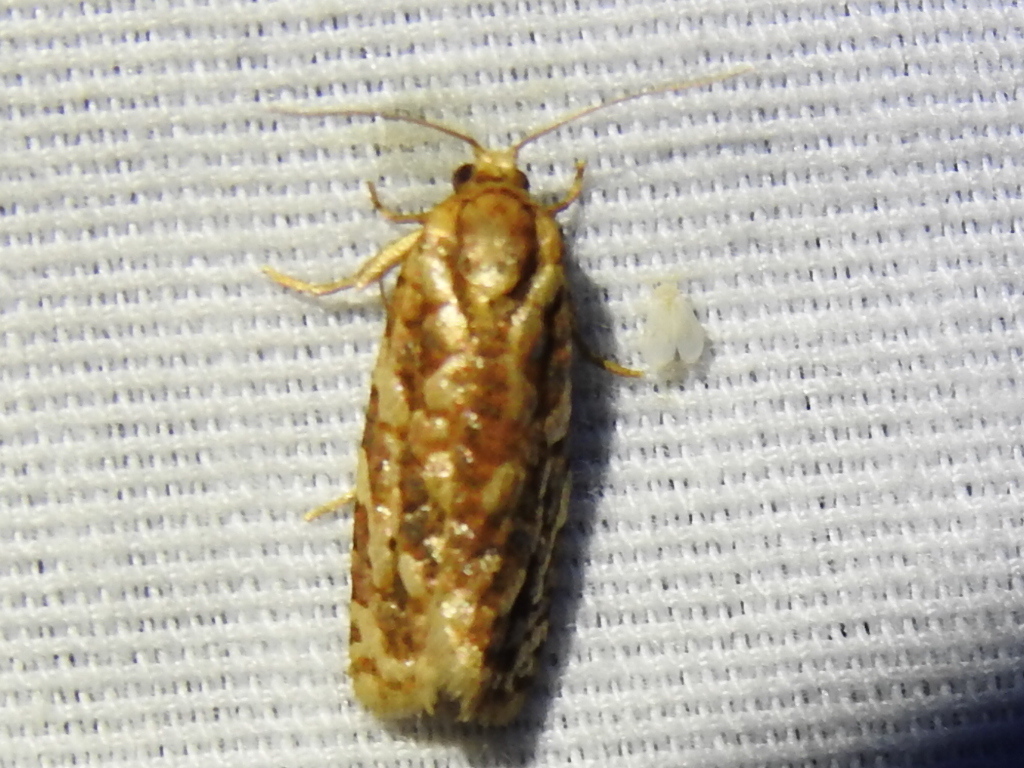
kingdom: Animalia
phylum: Arthropoda
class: Insecta
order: Lepidoptera
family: Tortricidae
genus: Choristoneura
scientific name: Choristoneura houstonana
